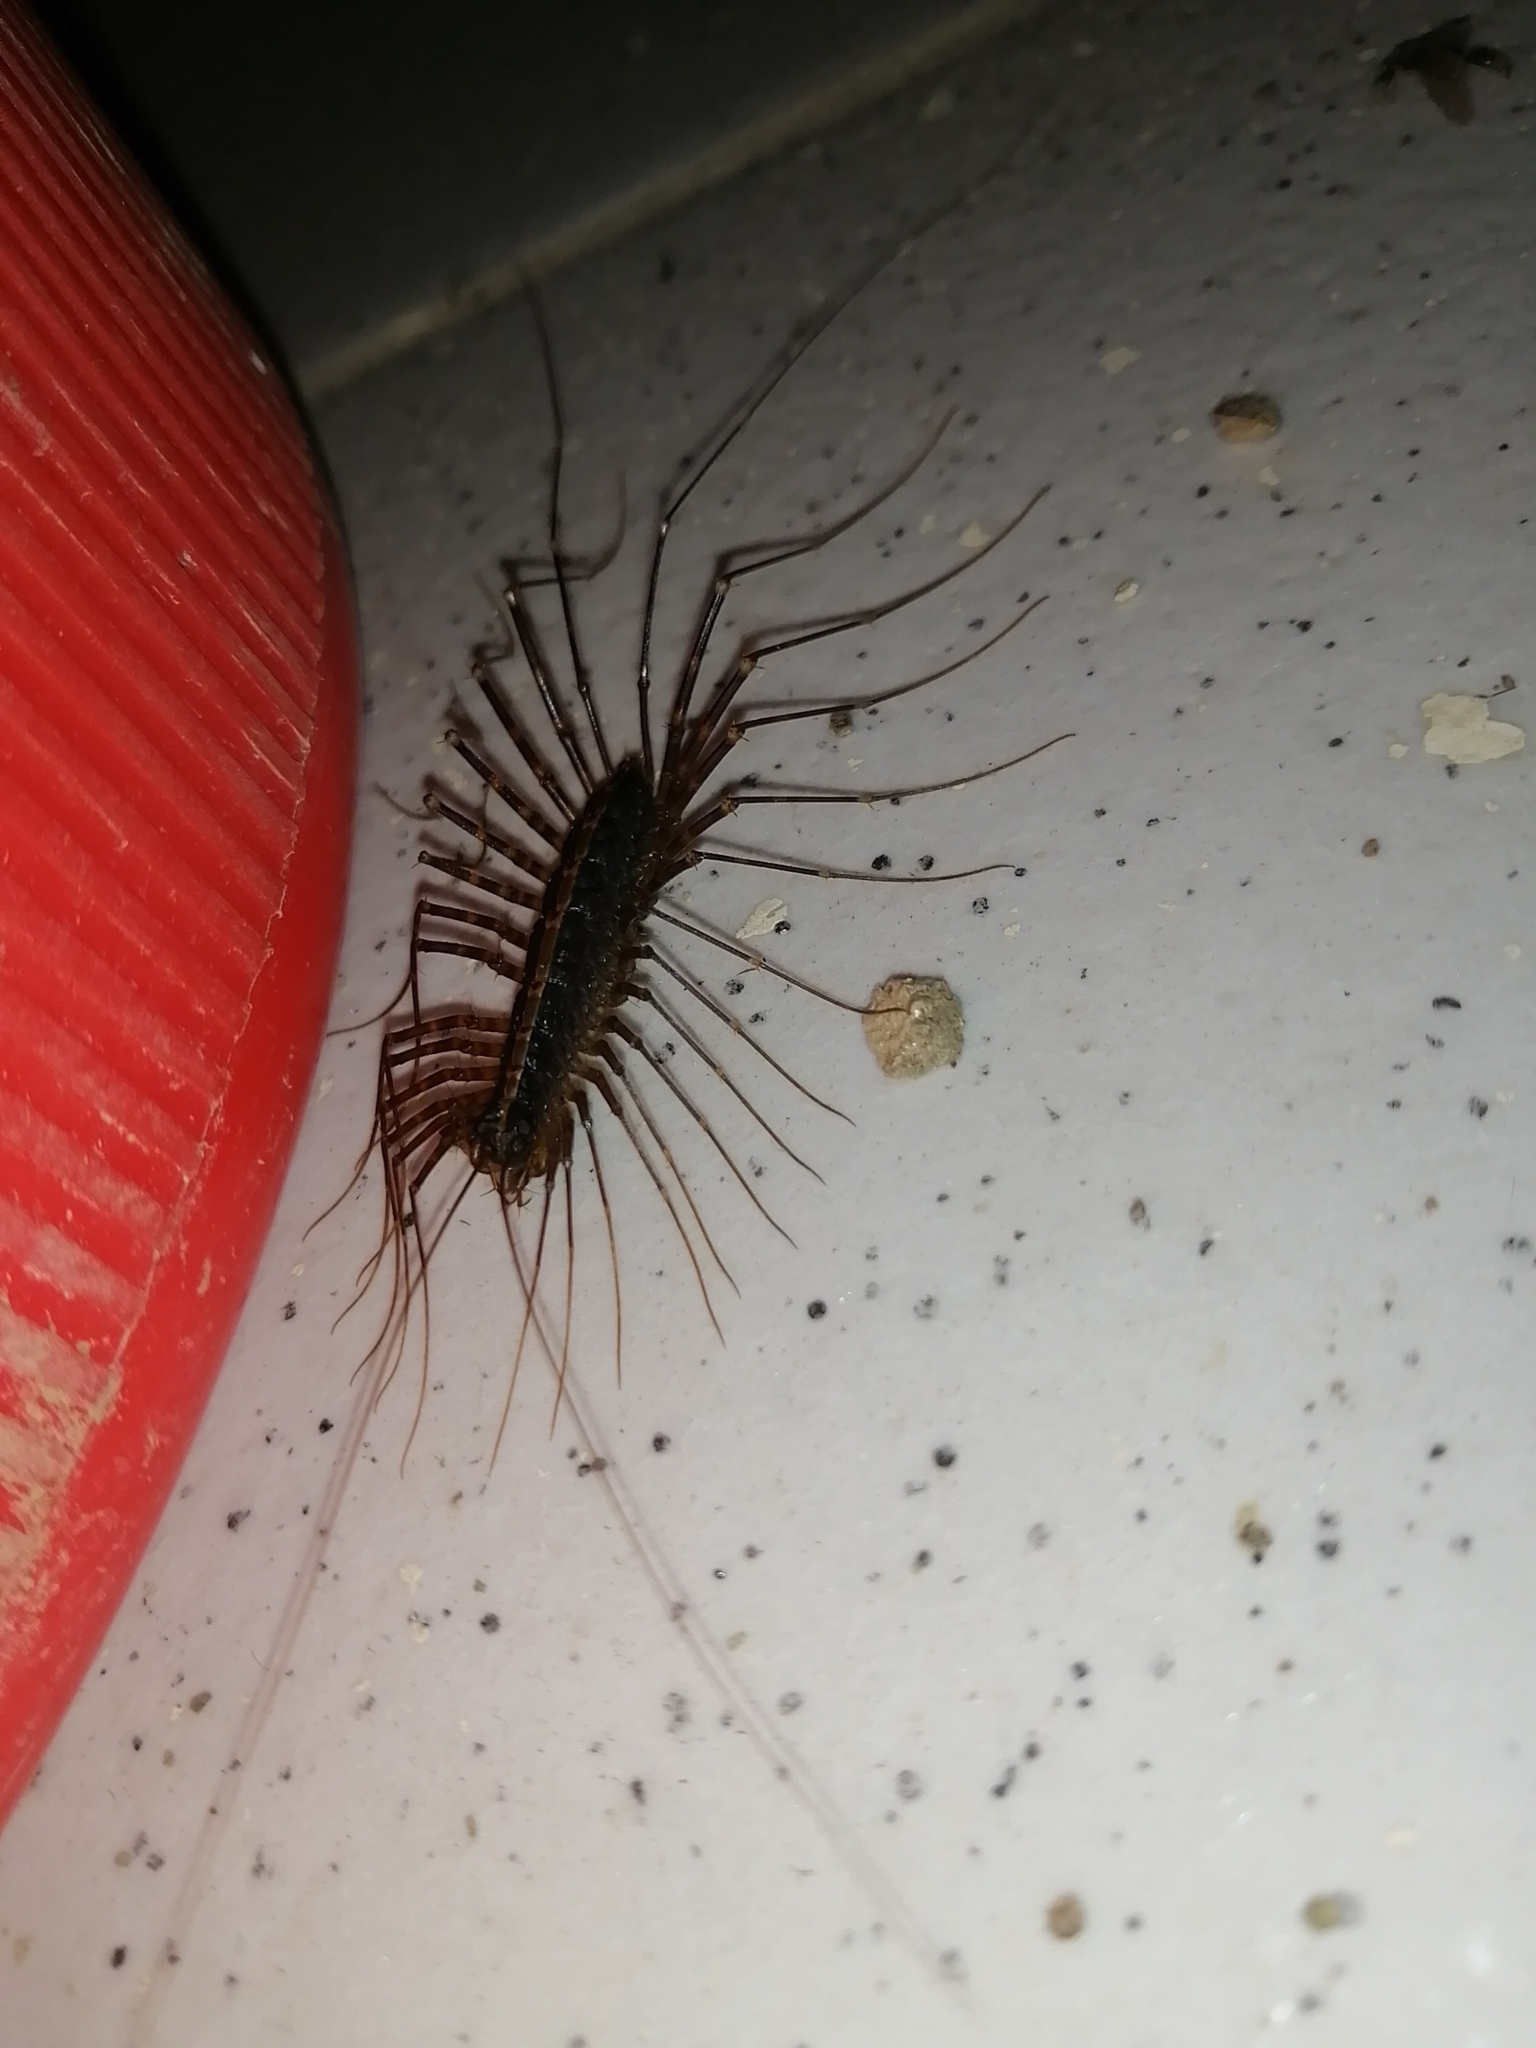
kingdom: Animalia
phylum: Arthropoda
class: Chilopoda
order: Scutigeromorpha
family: Pselliodidae
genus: Sphendononema
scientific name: Sphendononema guildingii
